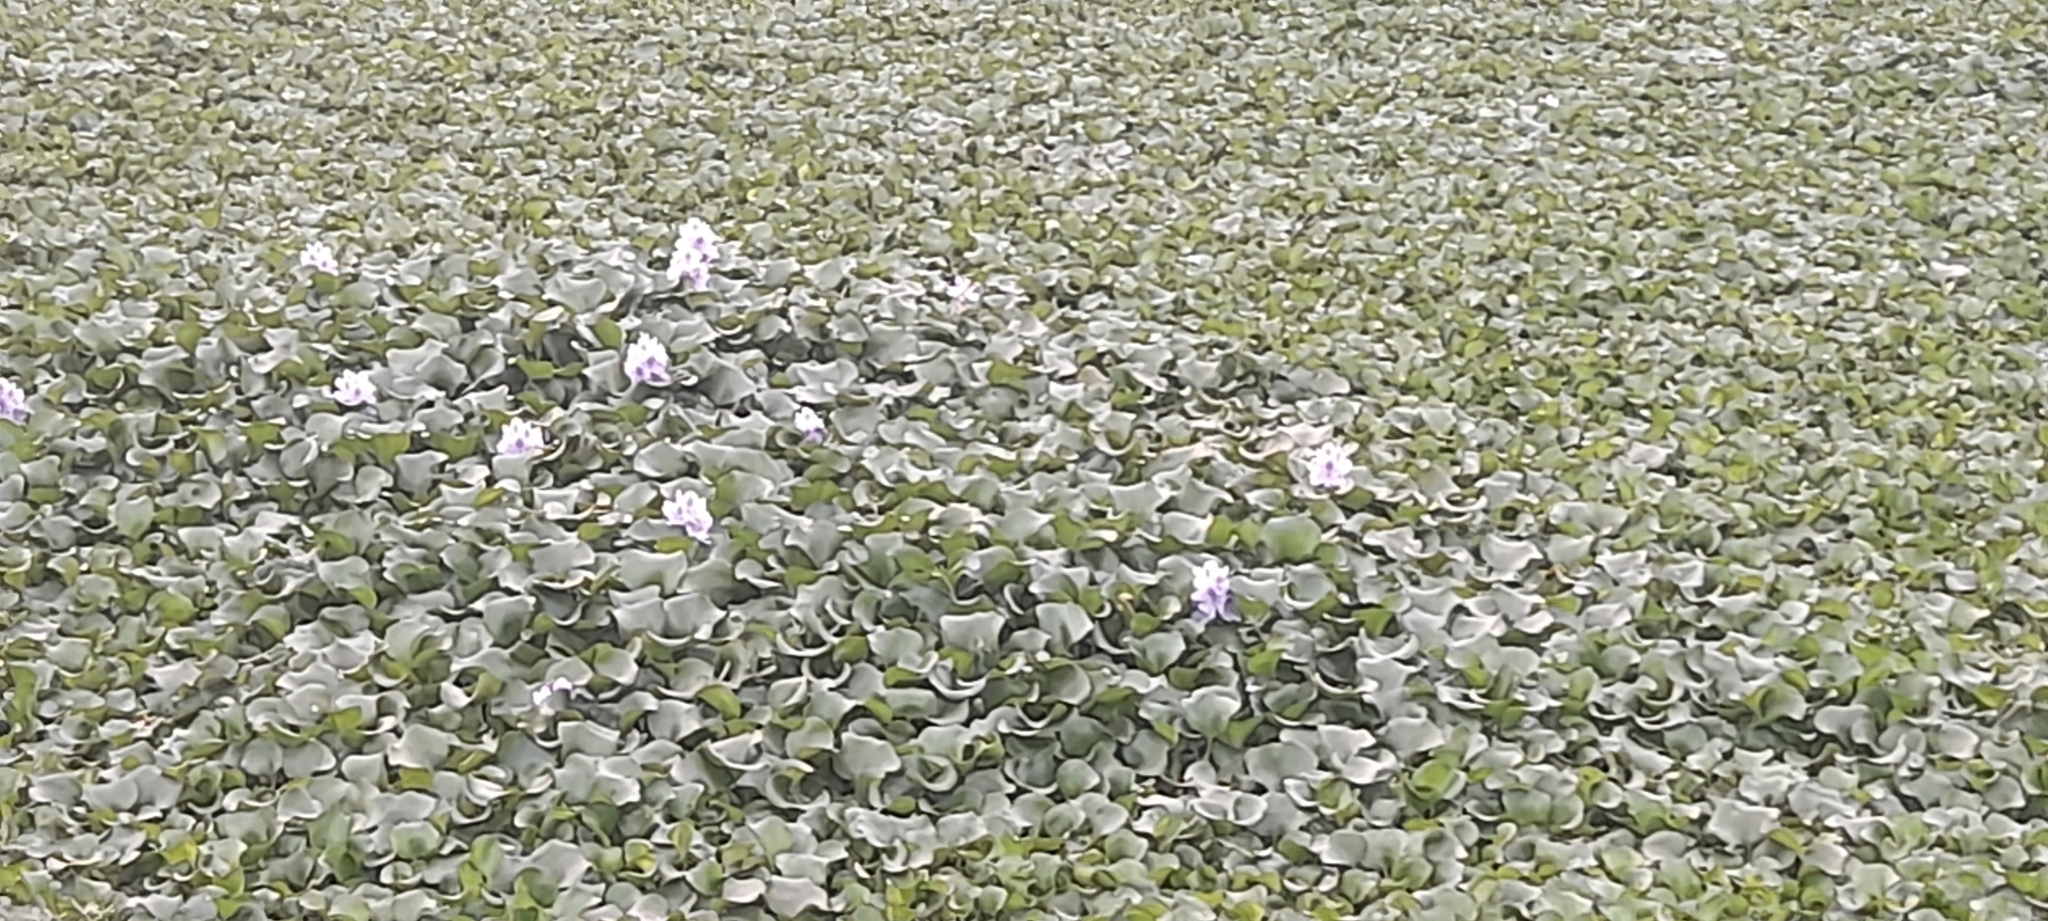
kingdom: Plantae
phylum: Tracheophyta
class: Liliopsida
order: Commelinales
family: Pontederiaceae
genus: Pontederia
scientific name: Pontederia crassipes
